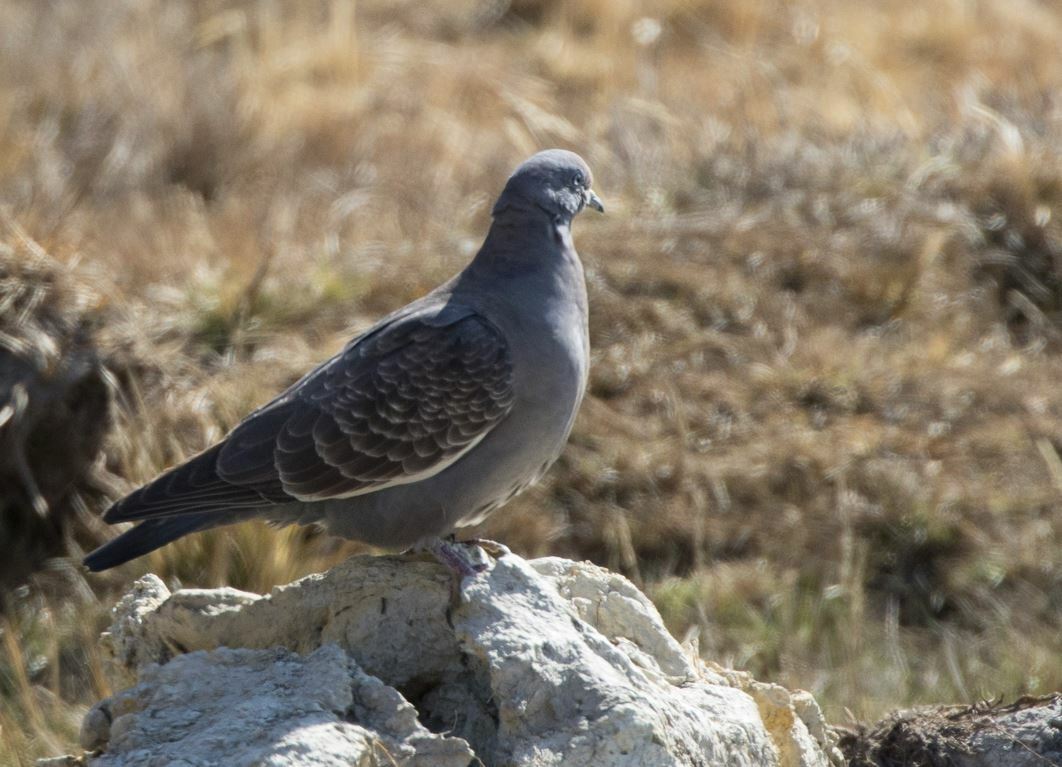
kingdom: Animalia
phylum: Chordata
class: Aves
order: Columbiformes
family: Columbidae
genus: Patagioenas
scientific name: Patagioenas maculosa
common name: Spot-winged pigeon
